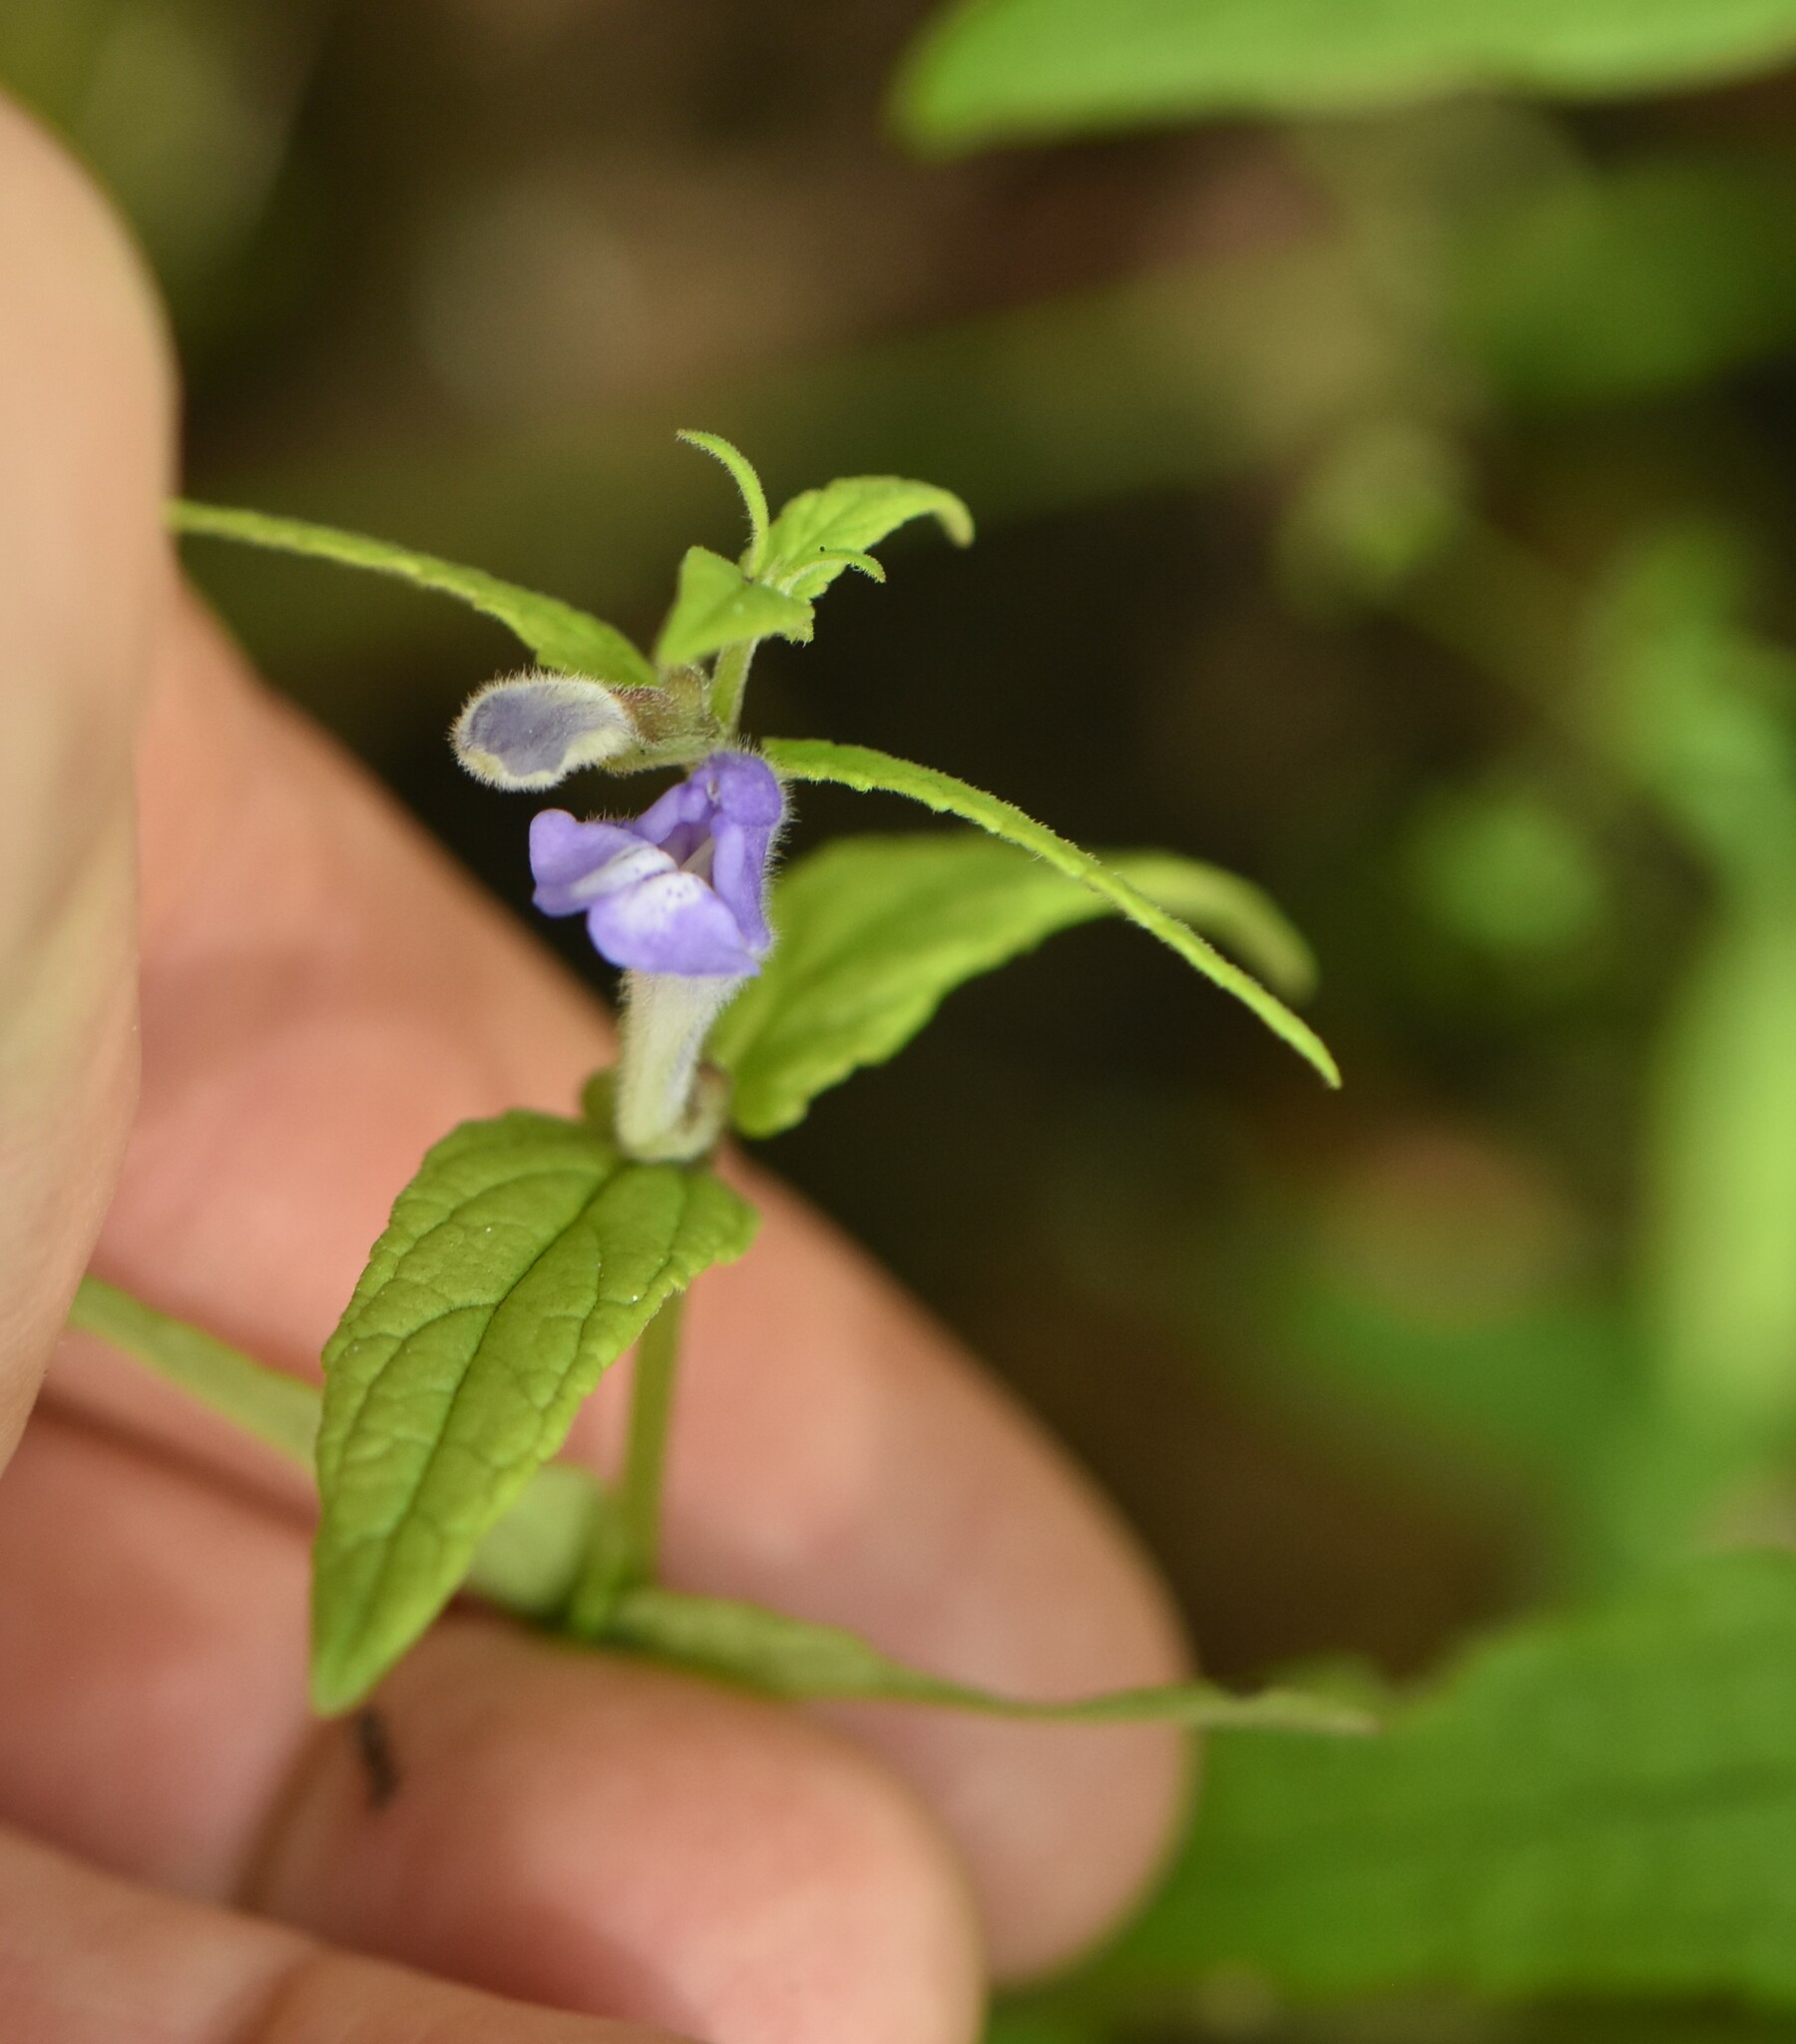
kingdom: Plantae
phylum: Tracheophyta
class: Magnoliopsida
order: Lamiales
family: Lamiaceae
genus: Scutellaria
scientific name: Scutellaria galericulata
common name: Skullcap
